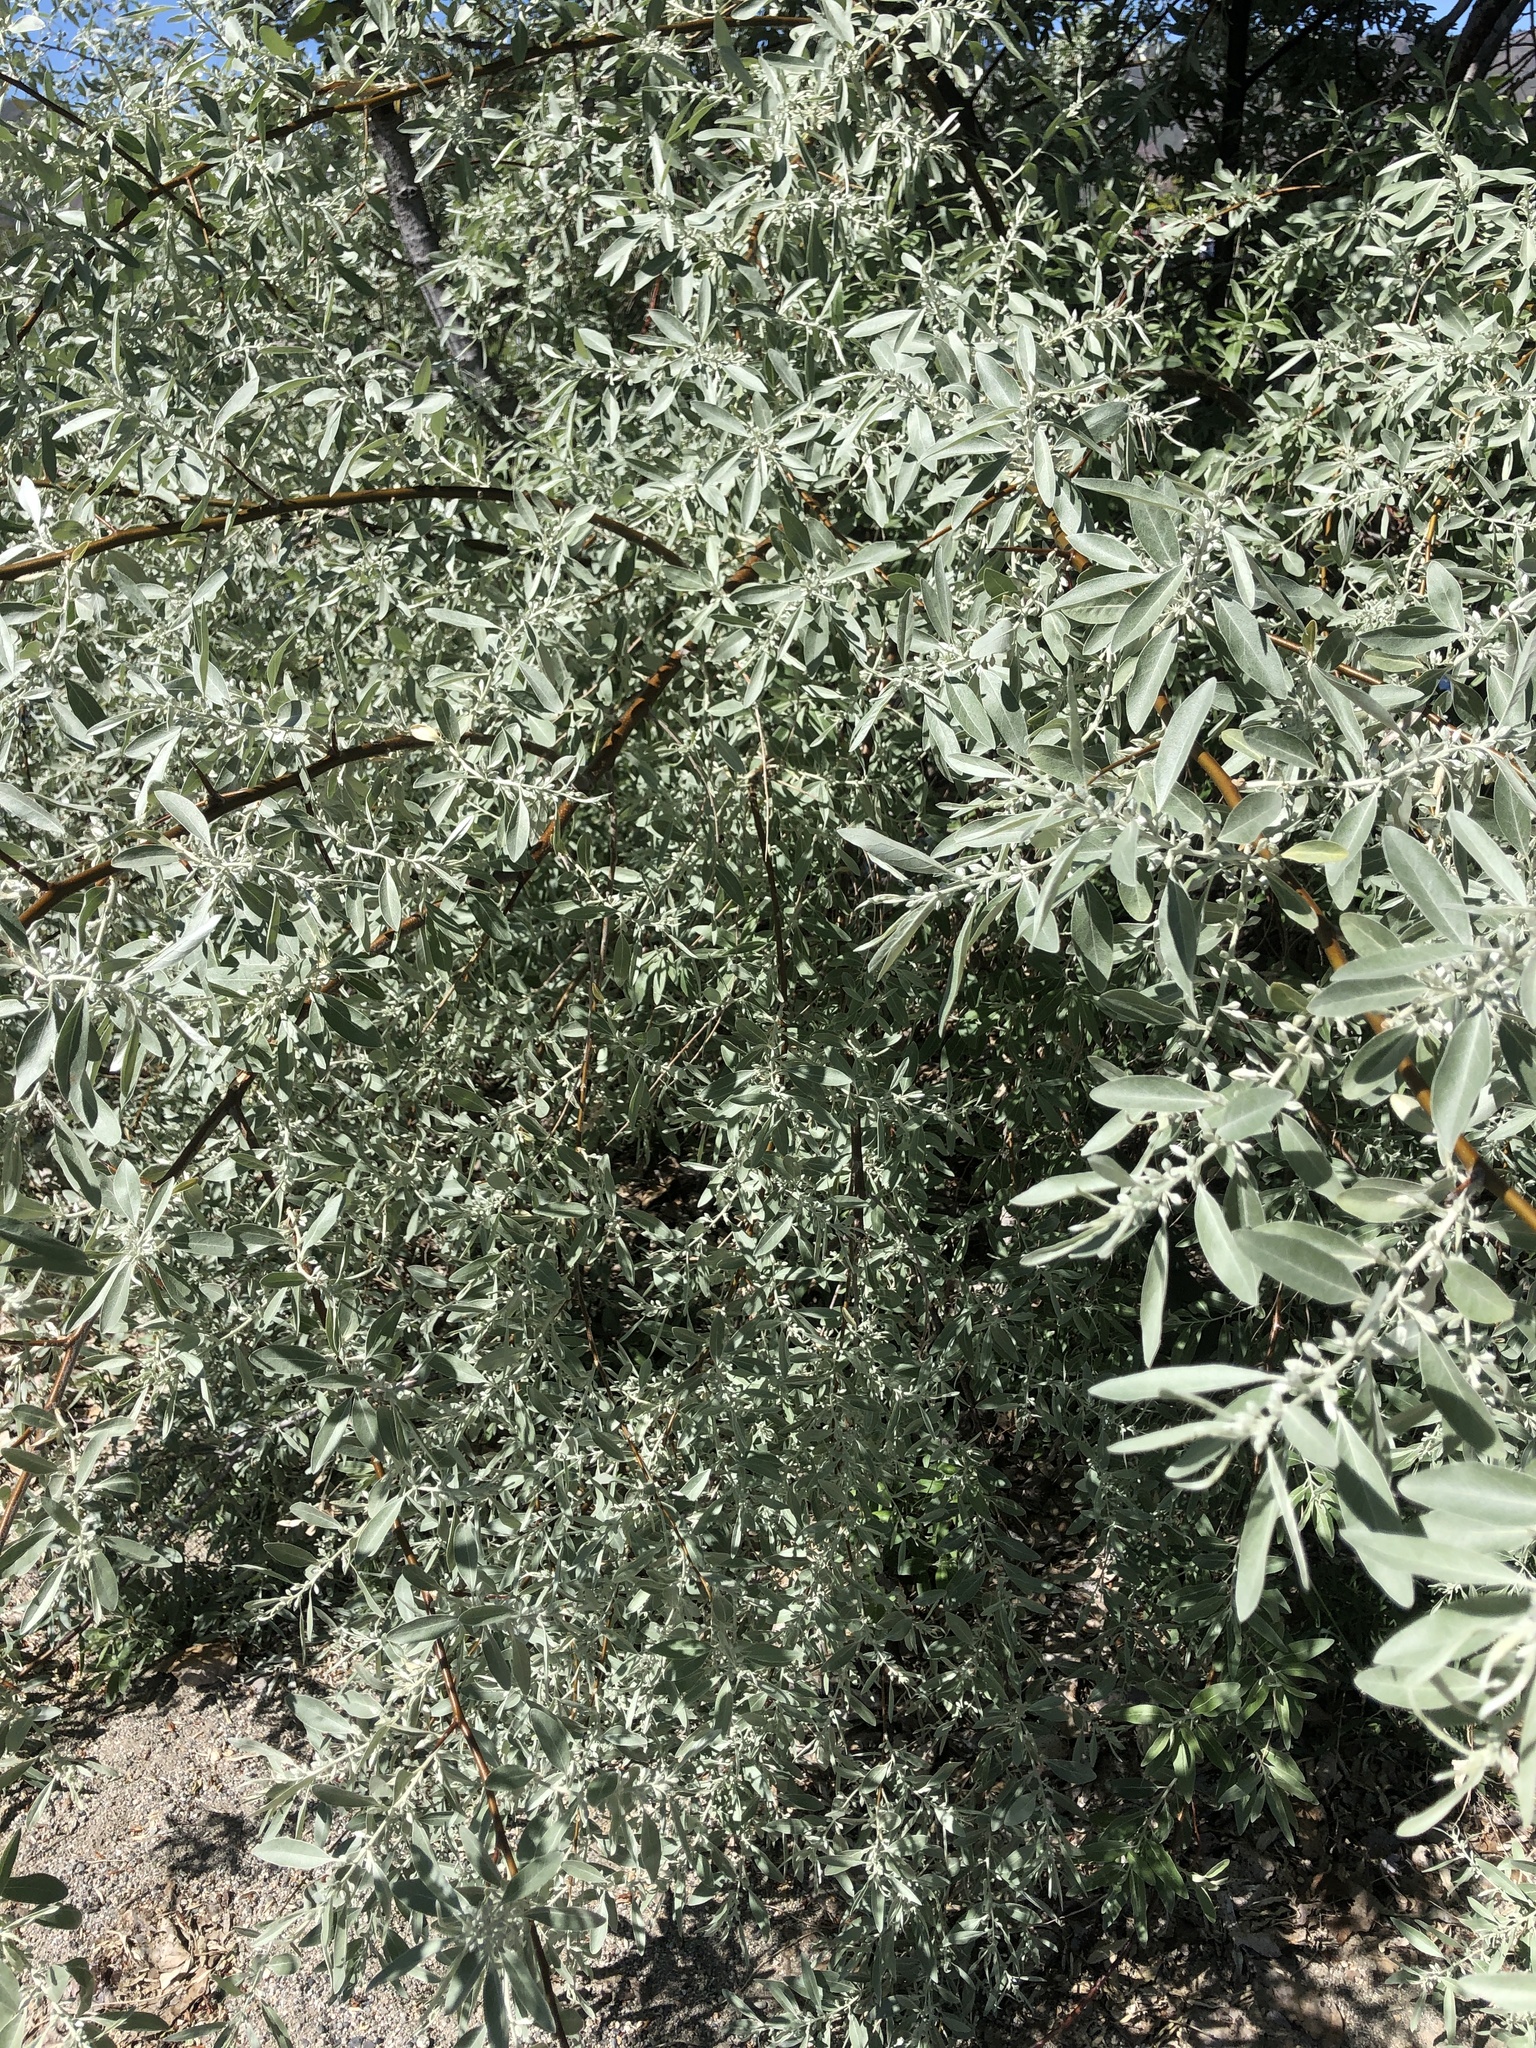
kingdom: Plantae
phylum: Tracheophyta
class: Magnoliopsida
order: Rosales
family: Elaeagnaceae
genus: Elaeagnus
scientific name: Elaeagnus angustifolia
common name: Russian olive
